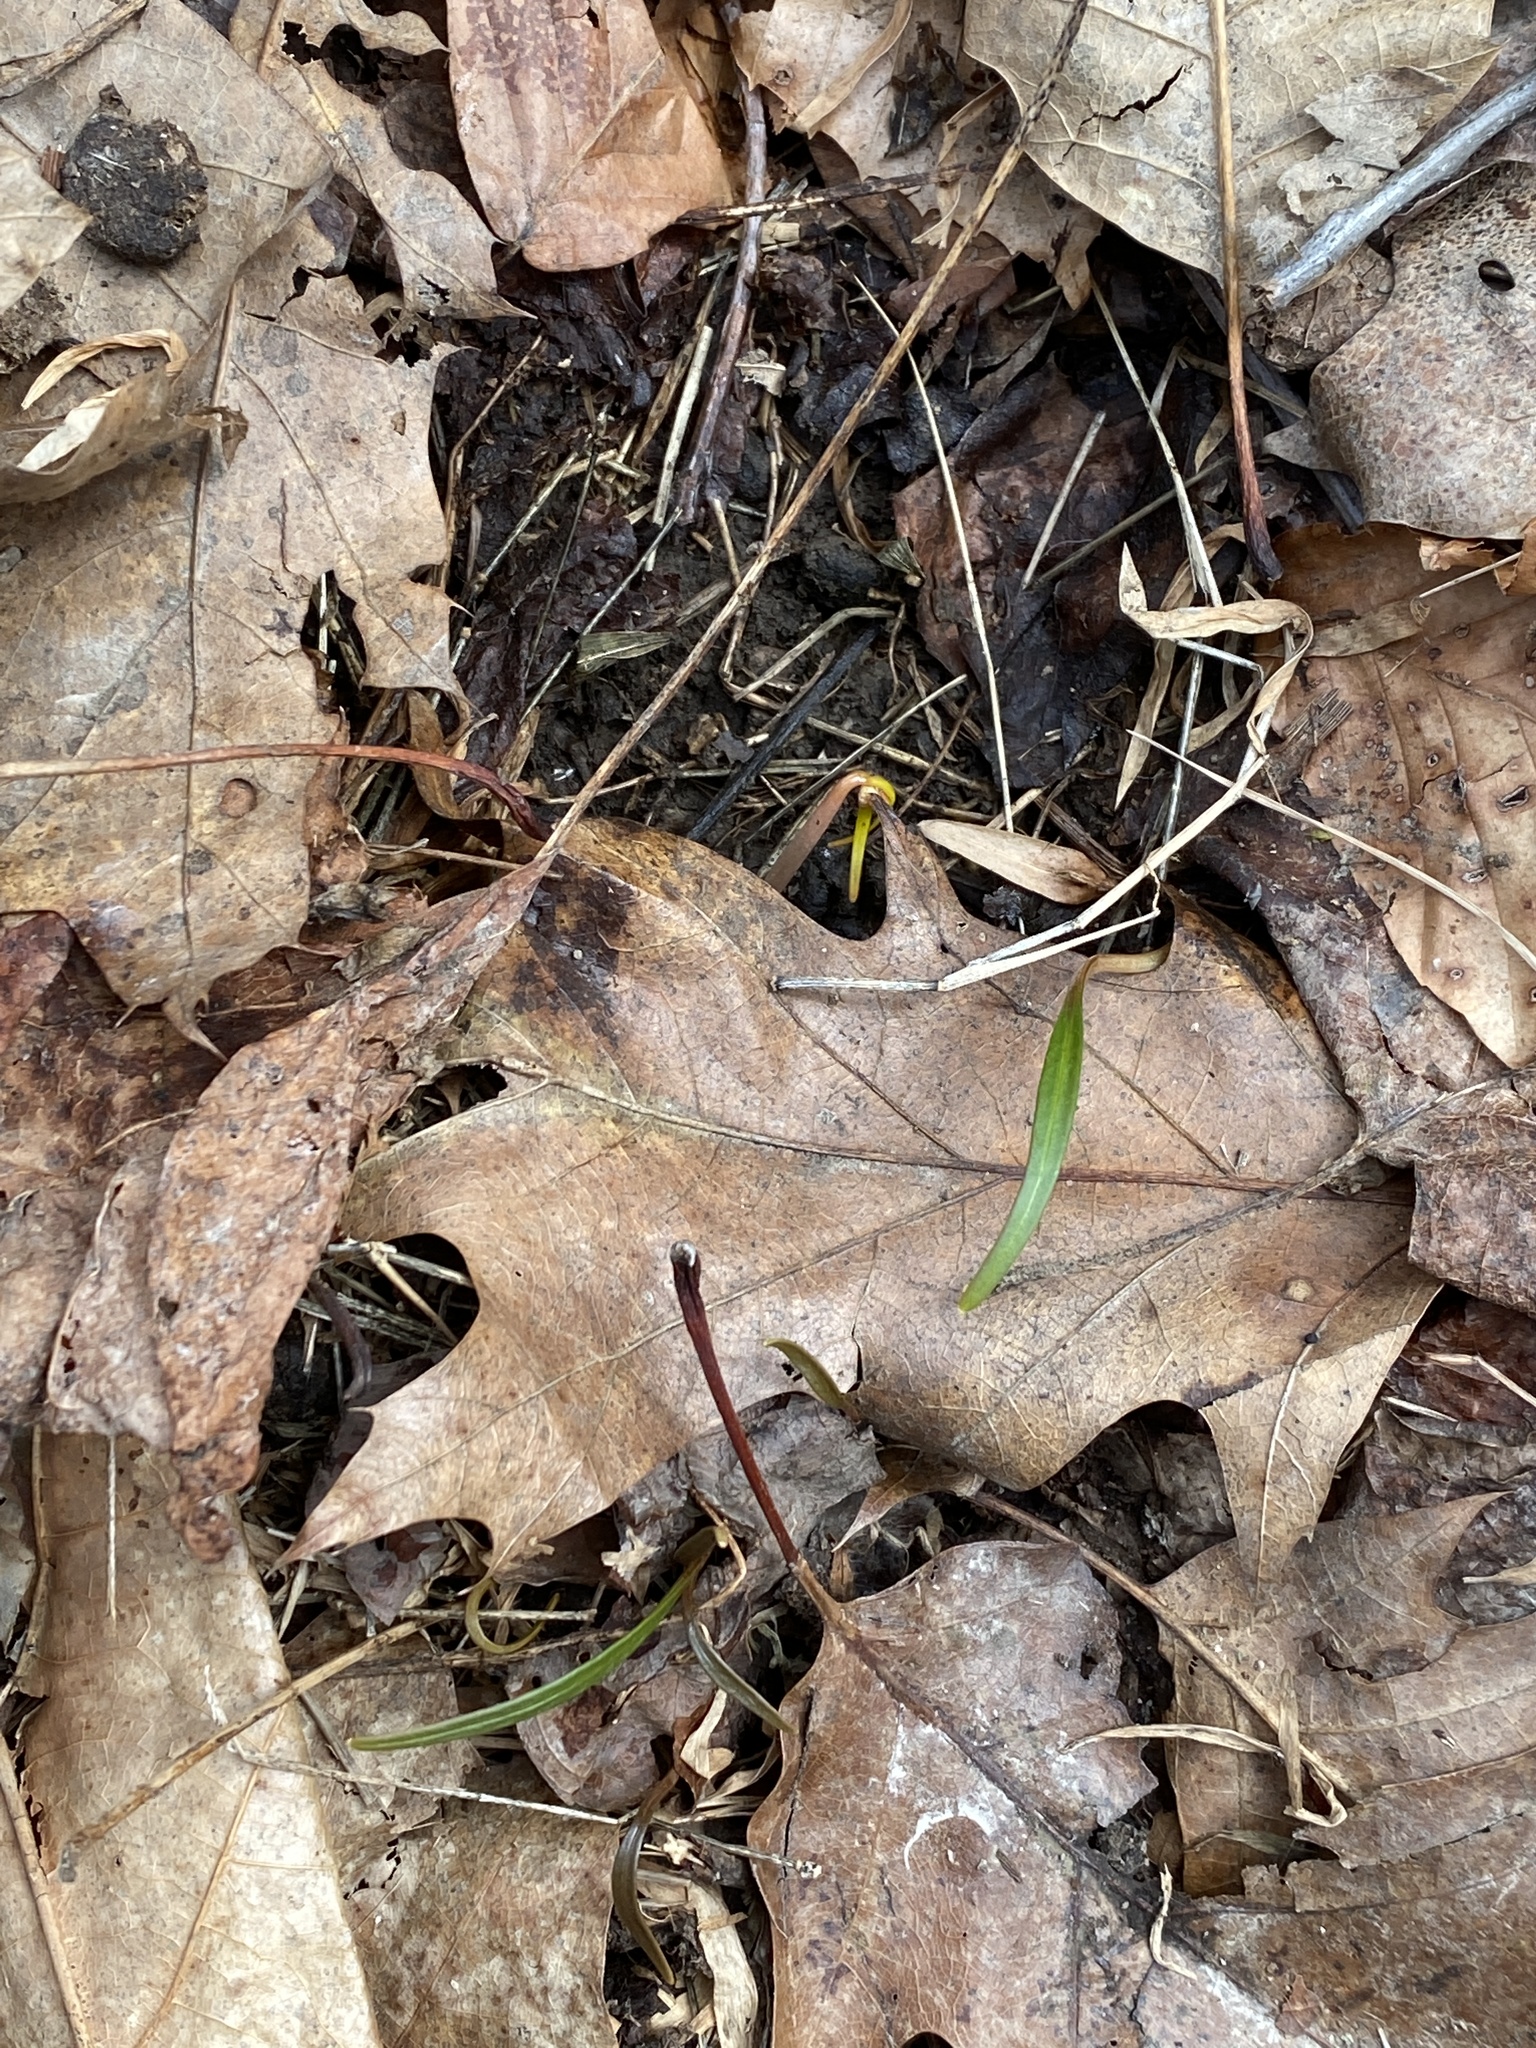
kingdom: Plantae
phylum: Tracheophyta
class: Magnoliopsida
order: Caryophyllales
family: Montiaceae
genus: Claytonia
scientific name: Claytonia virginica
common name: Virginia springbeauty
